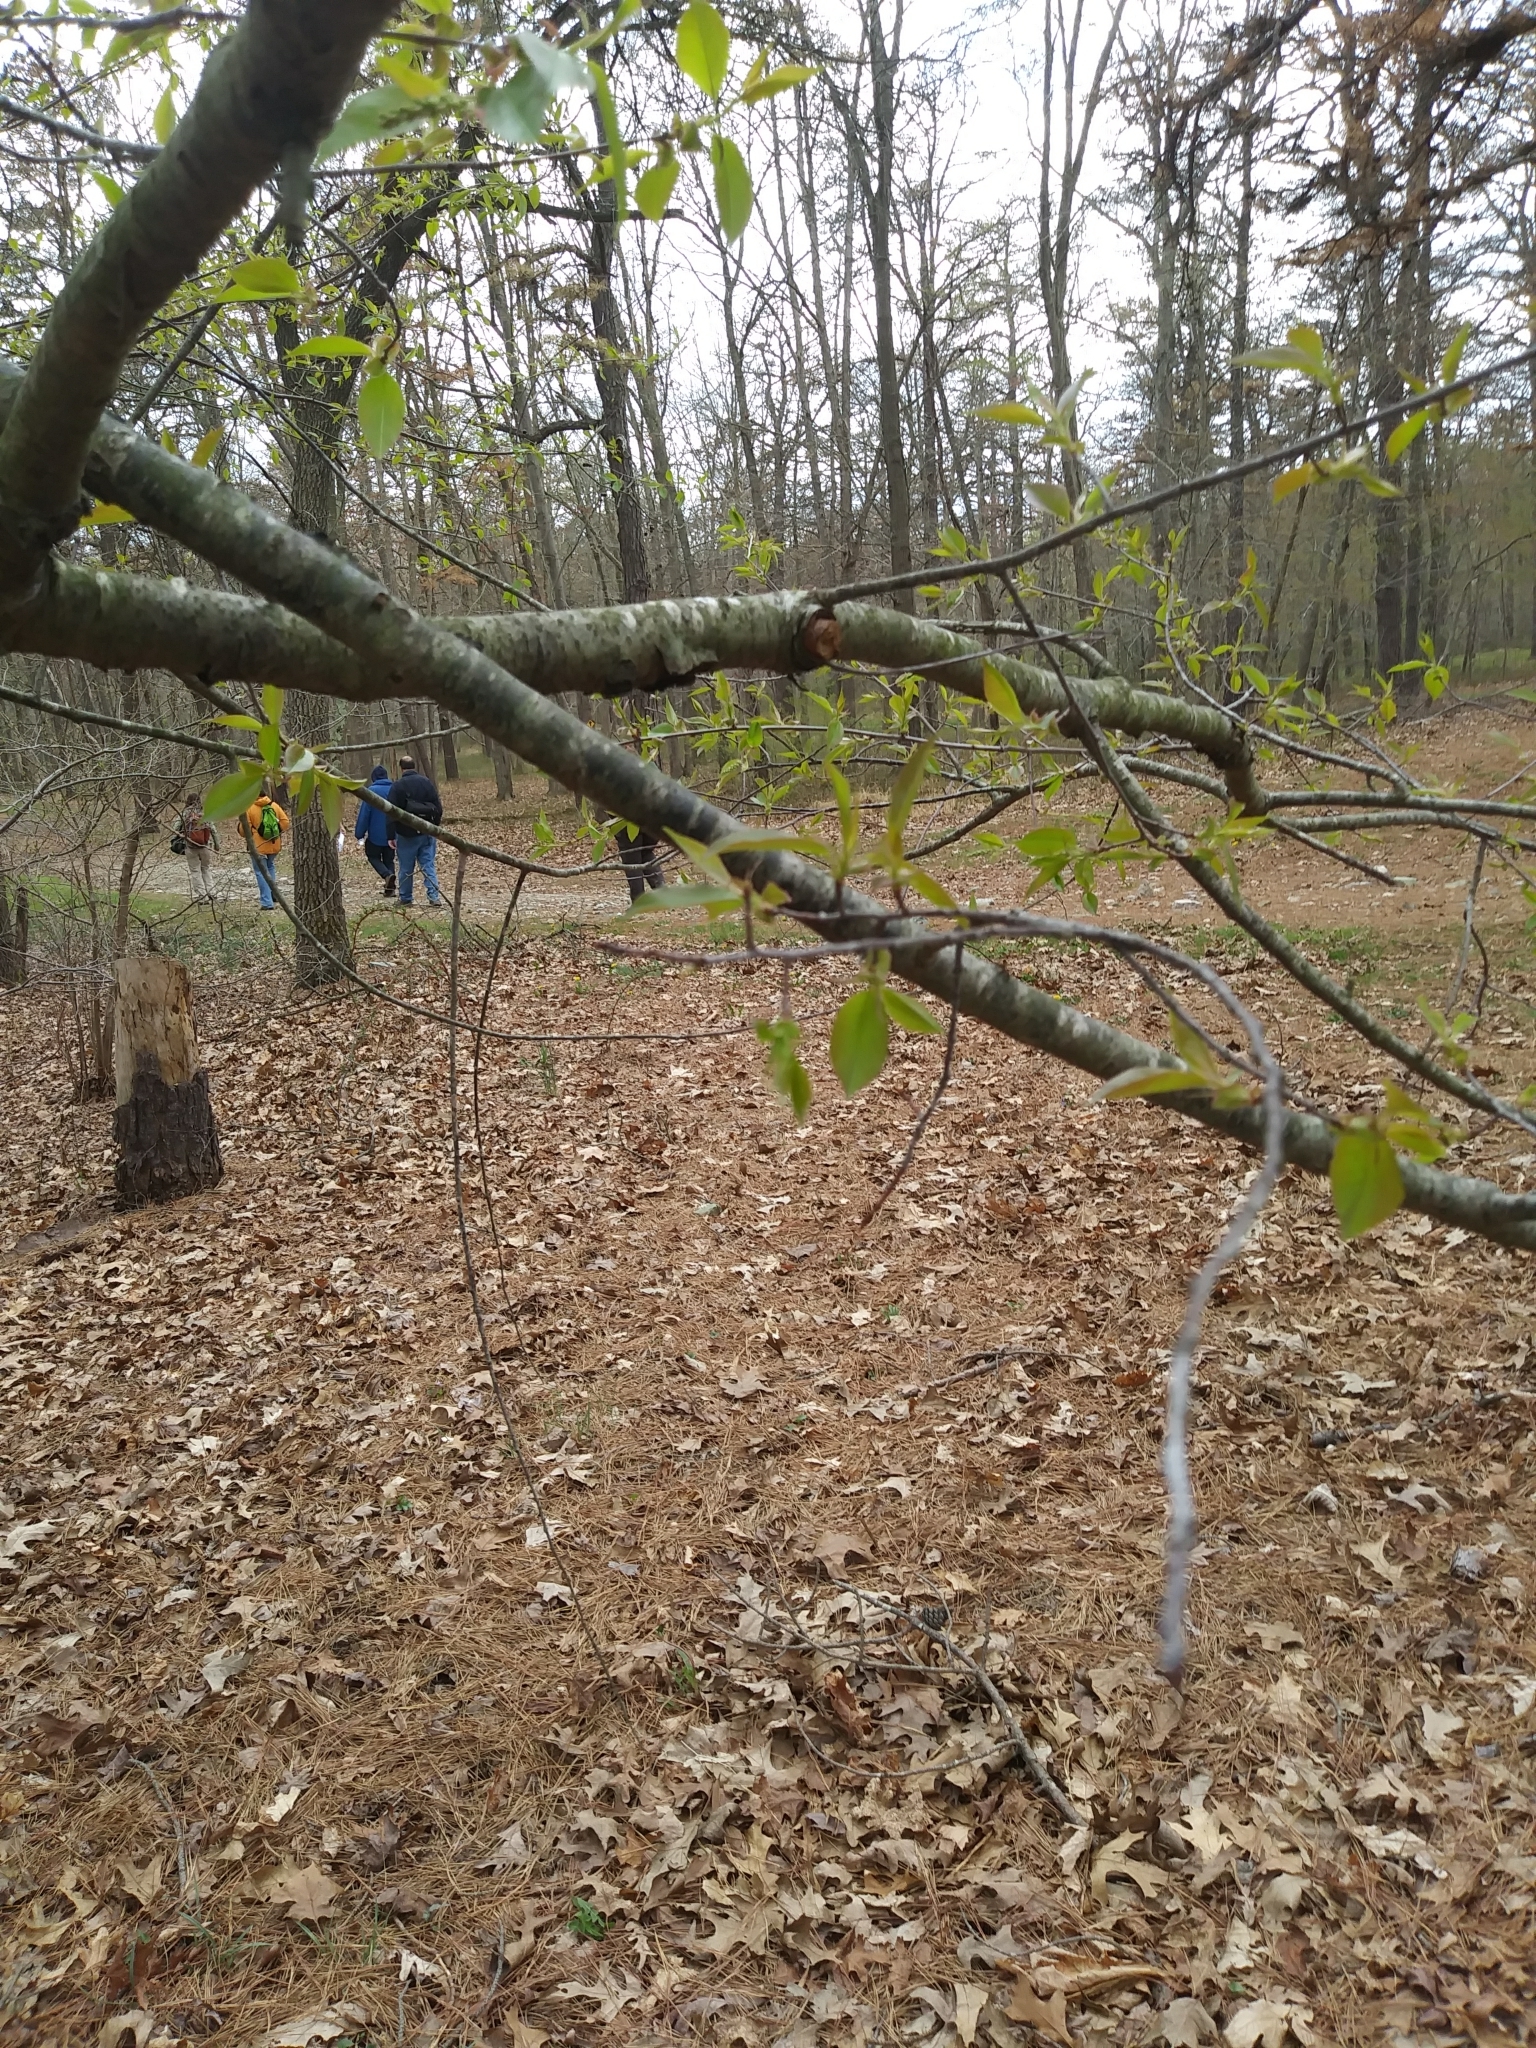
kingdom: Plantae
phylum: Tracheophyta
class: Magnoliopsida
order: Rosales
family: Rosaceae
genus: Prunus
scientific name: Prunus serotina
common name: Black cherry
